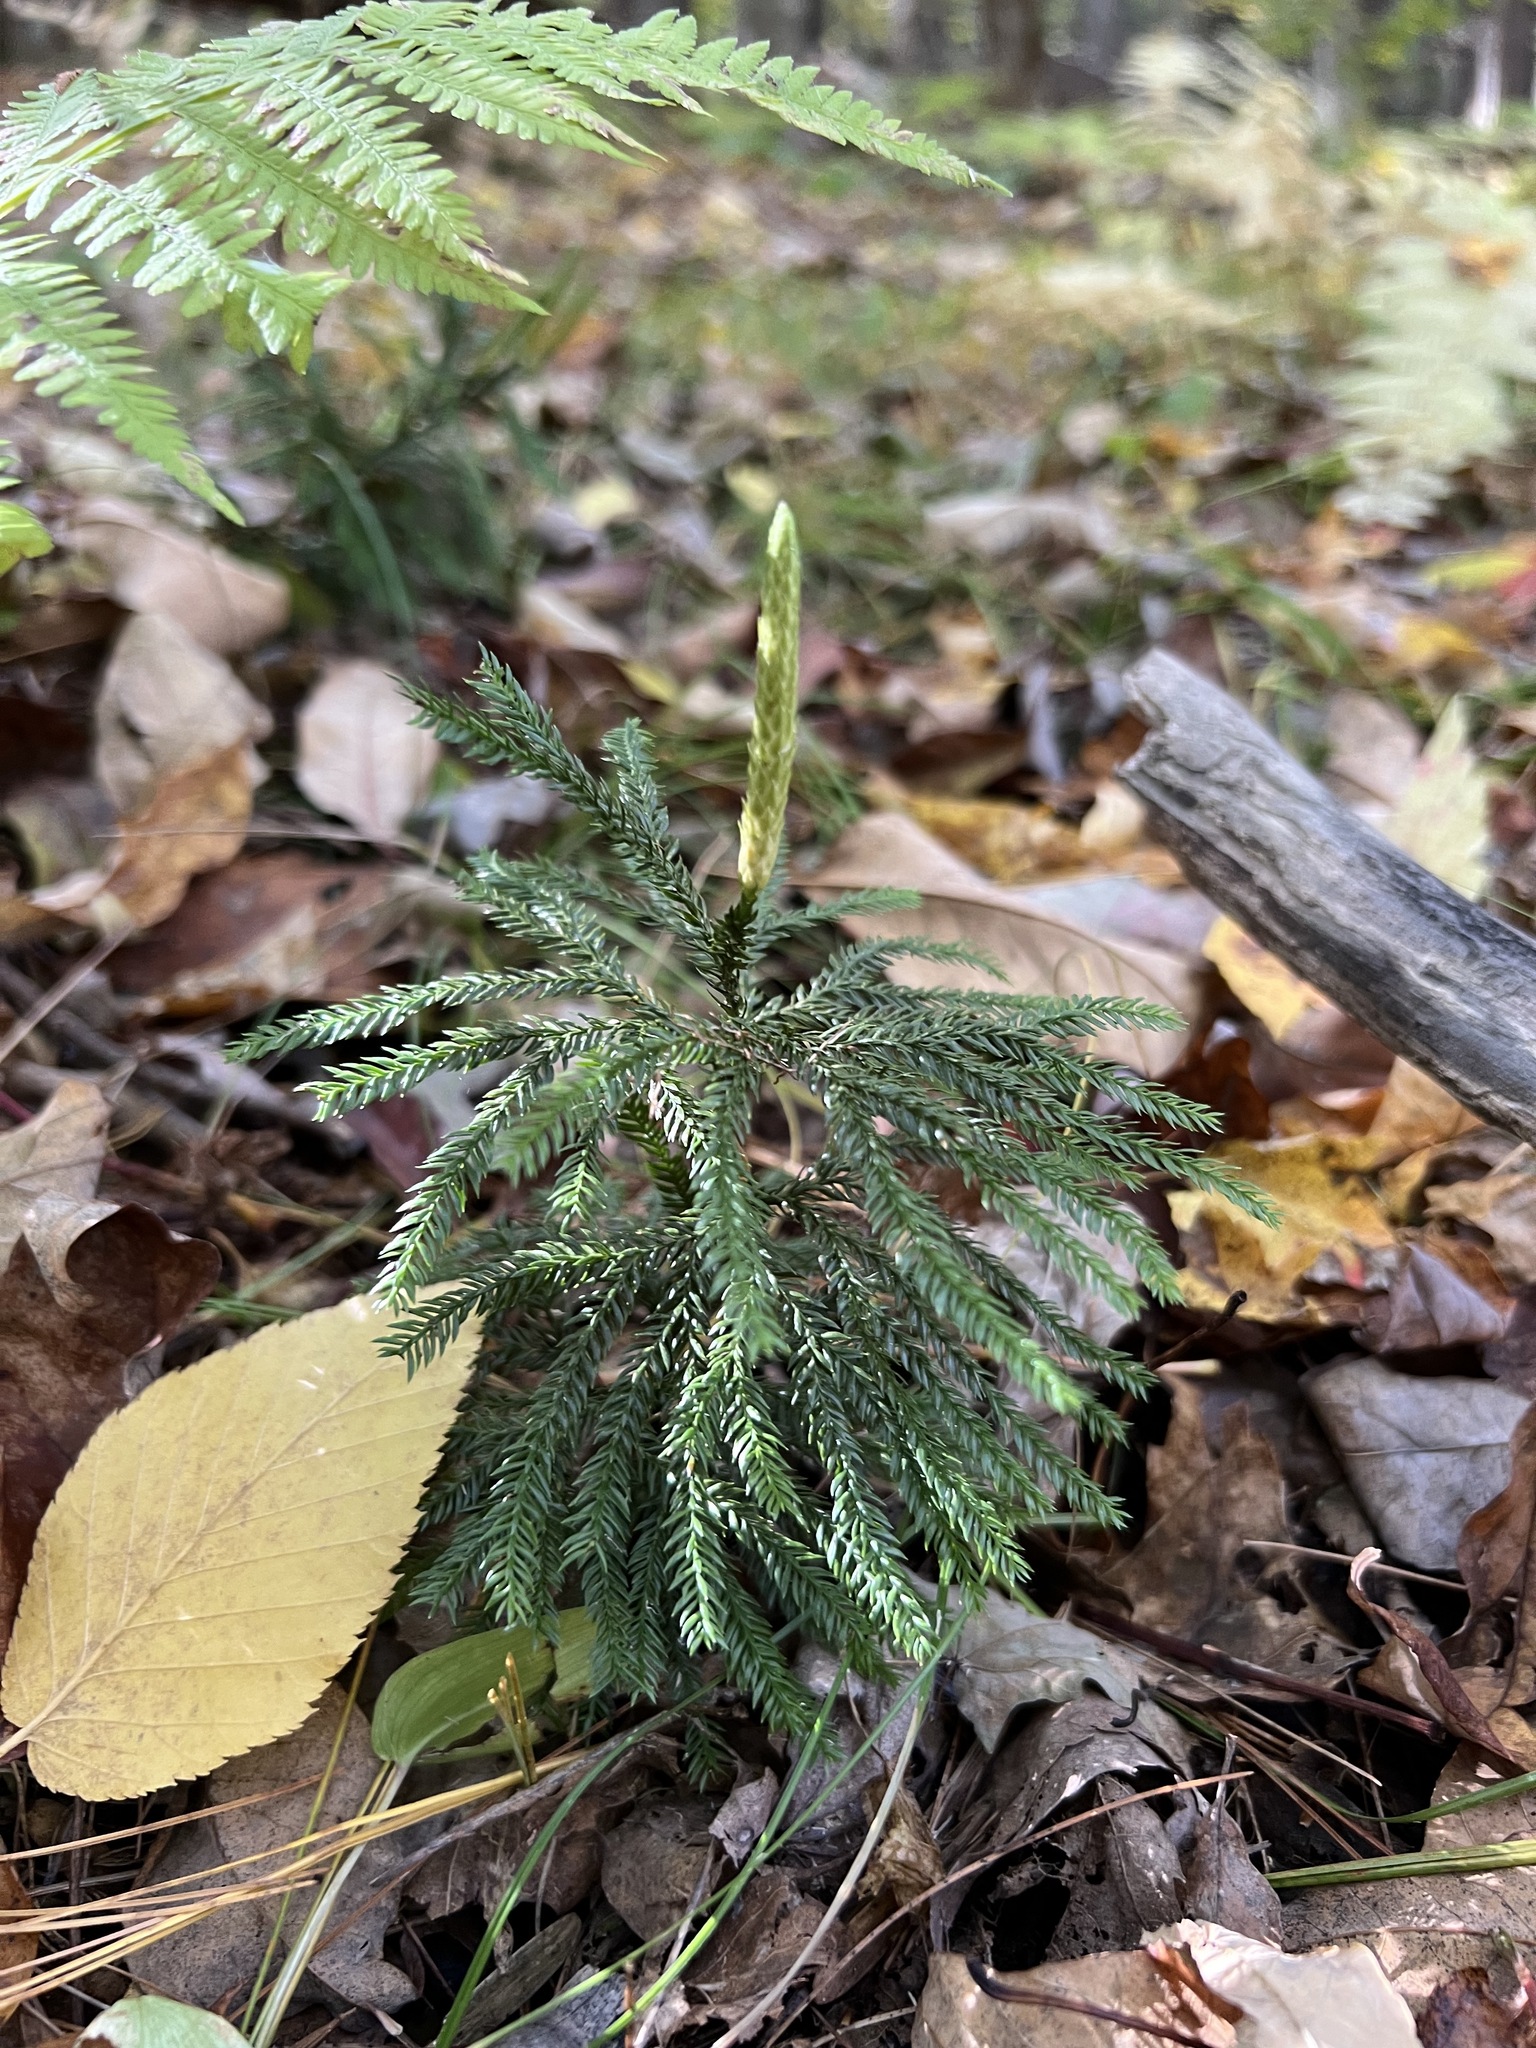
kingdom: Plantae
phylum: Tracheophyta
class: Lycopodiopsida
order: Lycopodiales
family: Lycopodiaceae
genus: Dendrolycopodium
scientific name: Dendrolycopodium obscurum
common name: Common ground-pine
